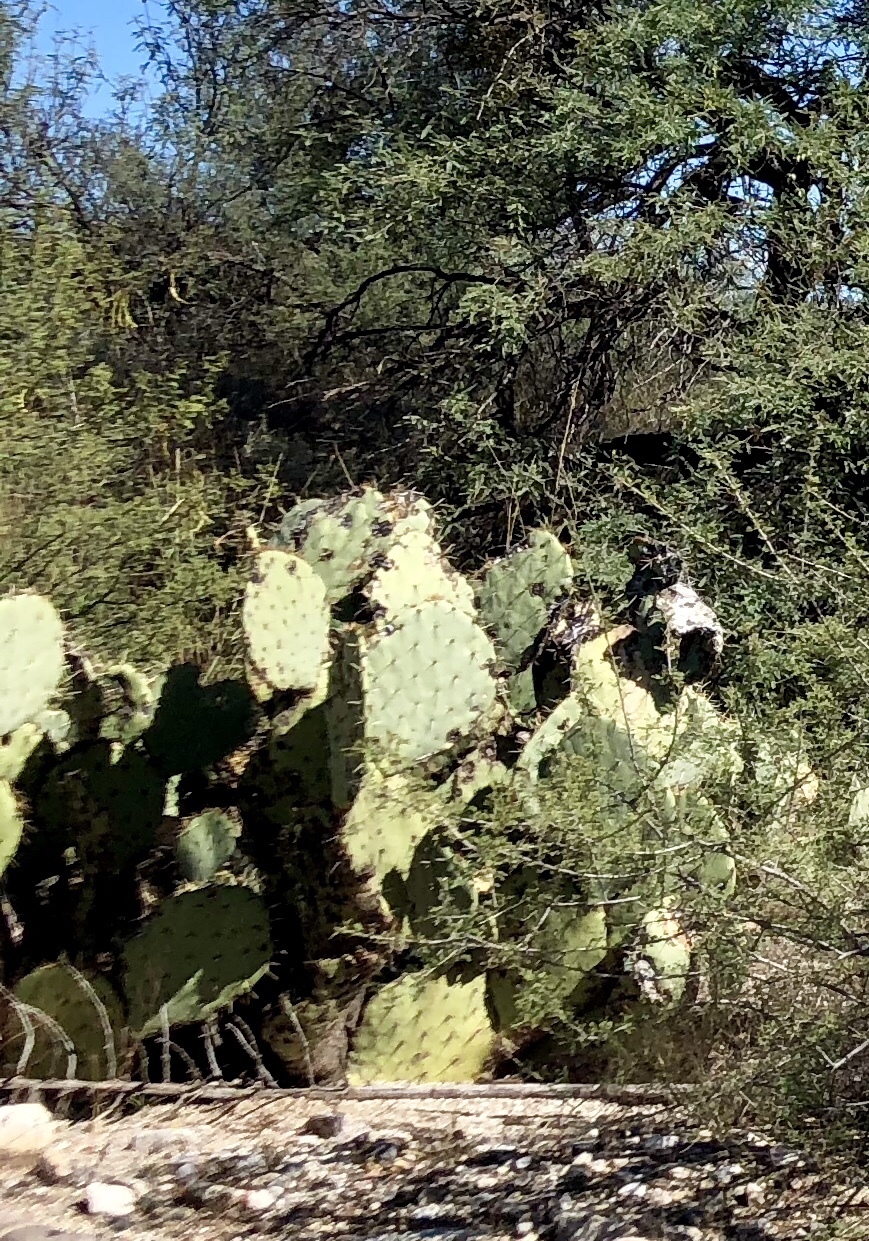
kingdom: Plantae
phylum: Tracheophyta
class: Magnoliopsida
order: Caryophyllales
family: Cactaceae
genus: Opuntia
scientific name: Opuntia engelmannii
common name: Cactus-apple
